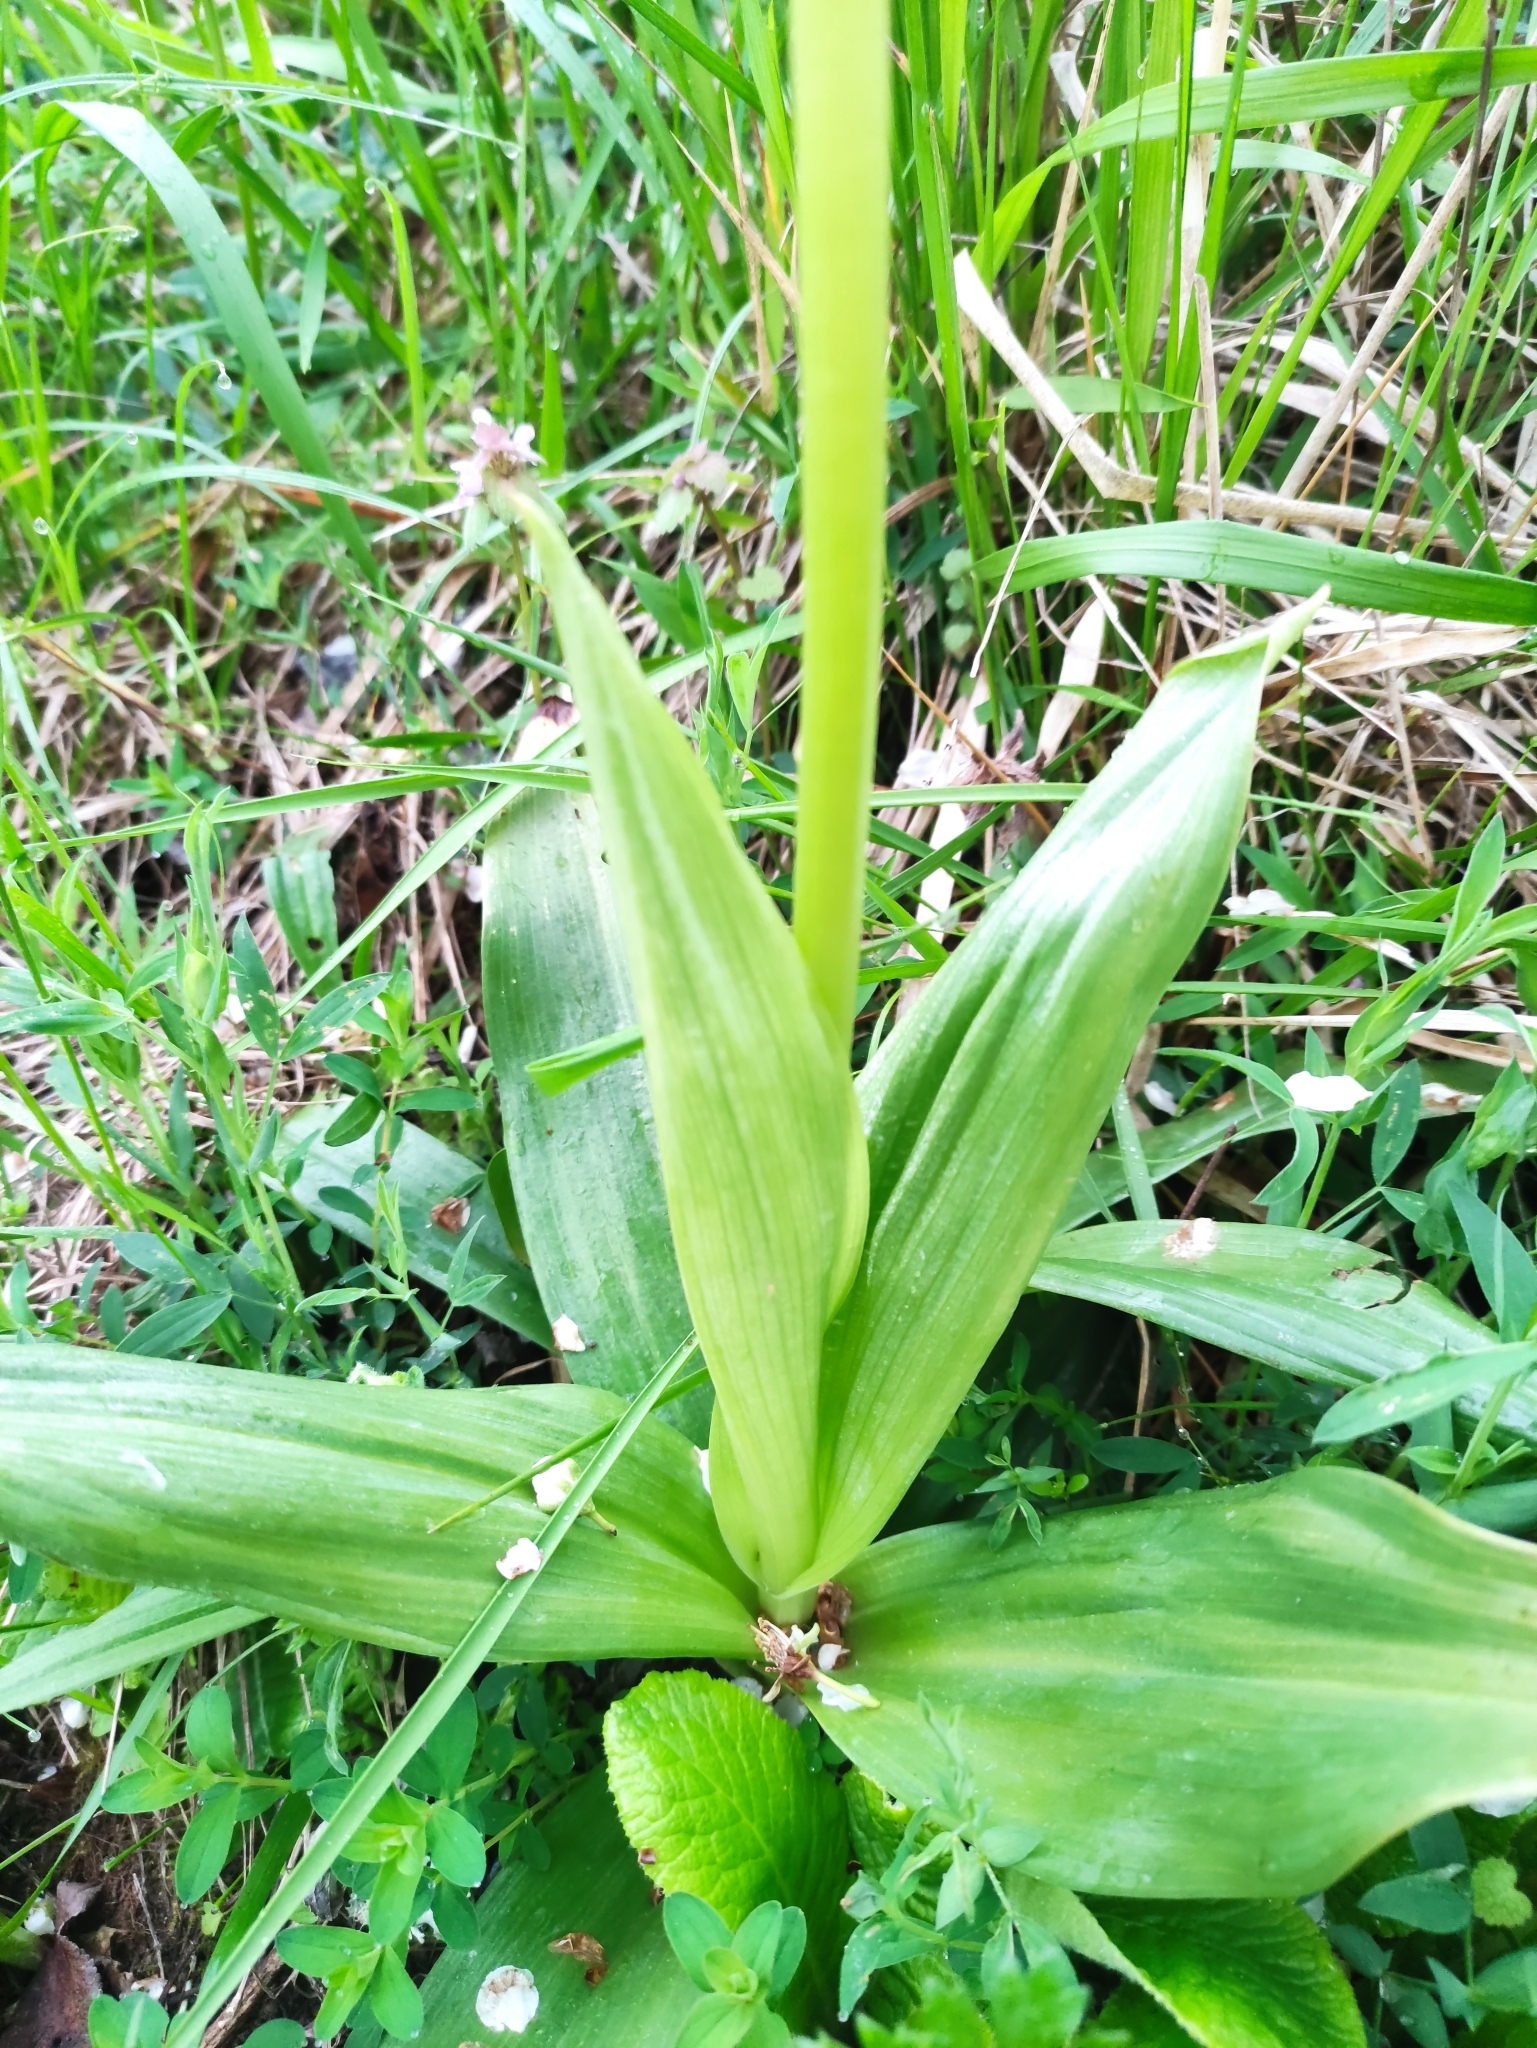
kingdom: Plantae
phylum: Tracheophyta
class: Liliopsida
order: Asparagales
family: Orchidaceae
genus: Orchis
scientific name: Orchis purpurea
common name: Lady orchid
